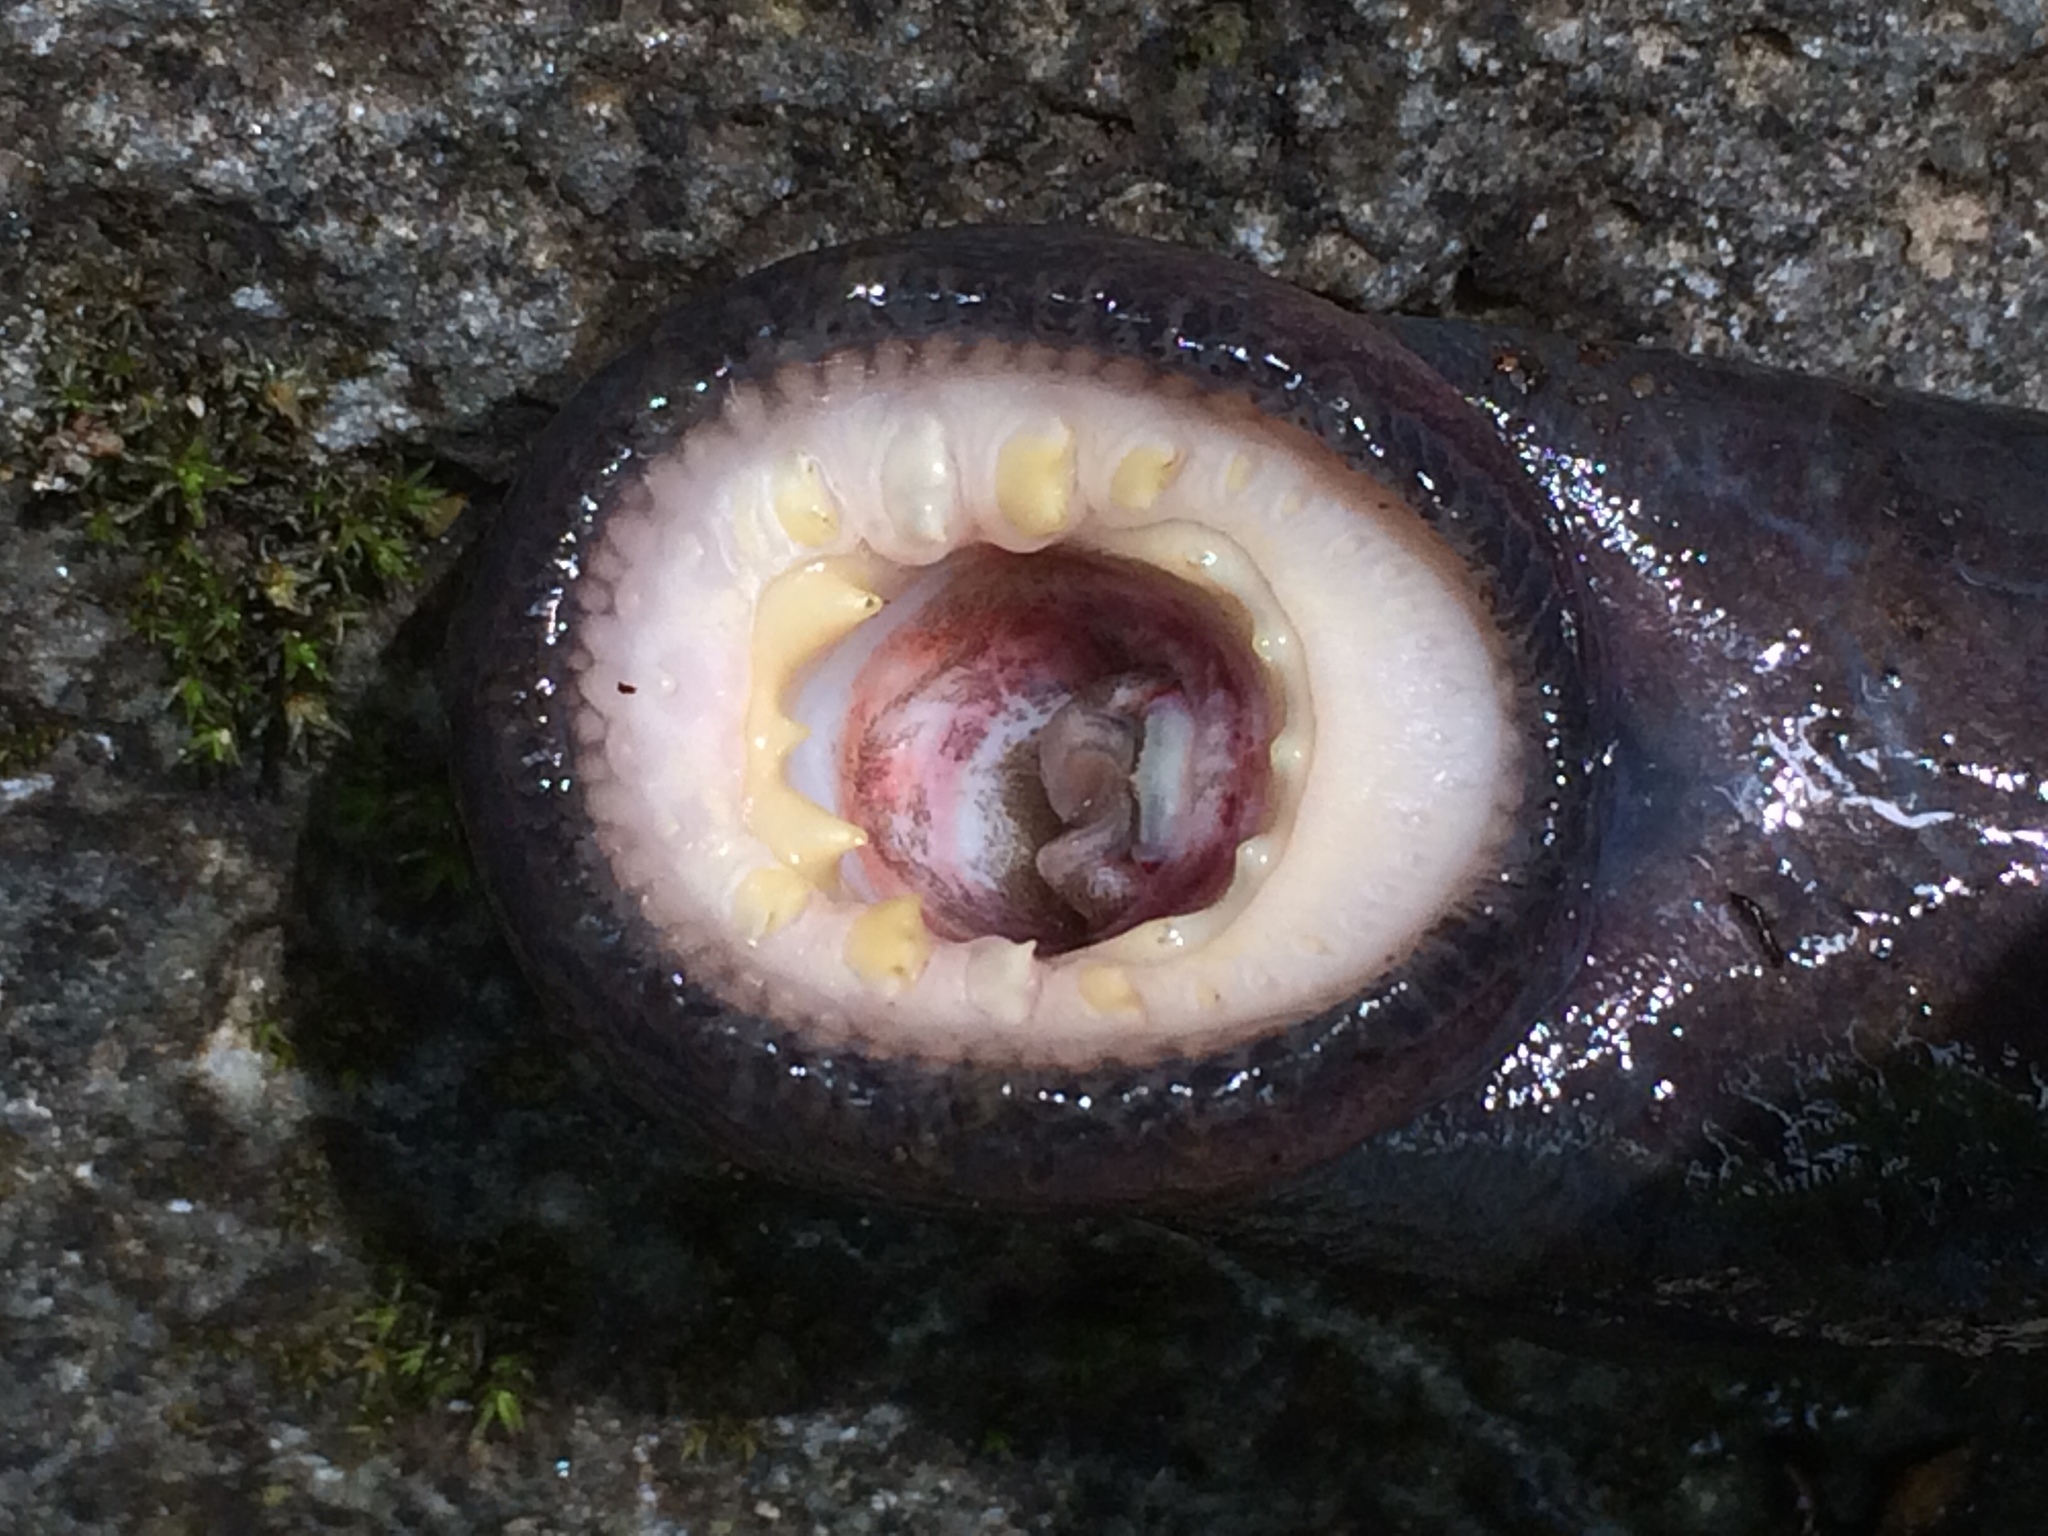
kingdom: Animalia
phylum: Chordata
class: Petromyzonti
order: Petromyzontiformes
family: Petromyzontidae
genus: Entosphenus
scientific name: Entosphenus tridentatus
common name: Pacific lamprey
